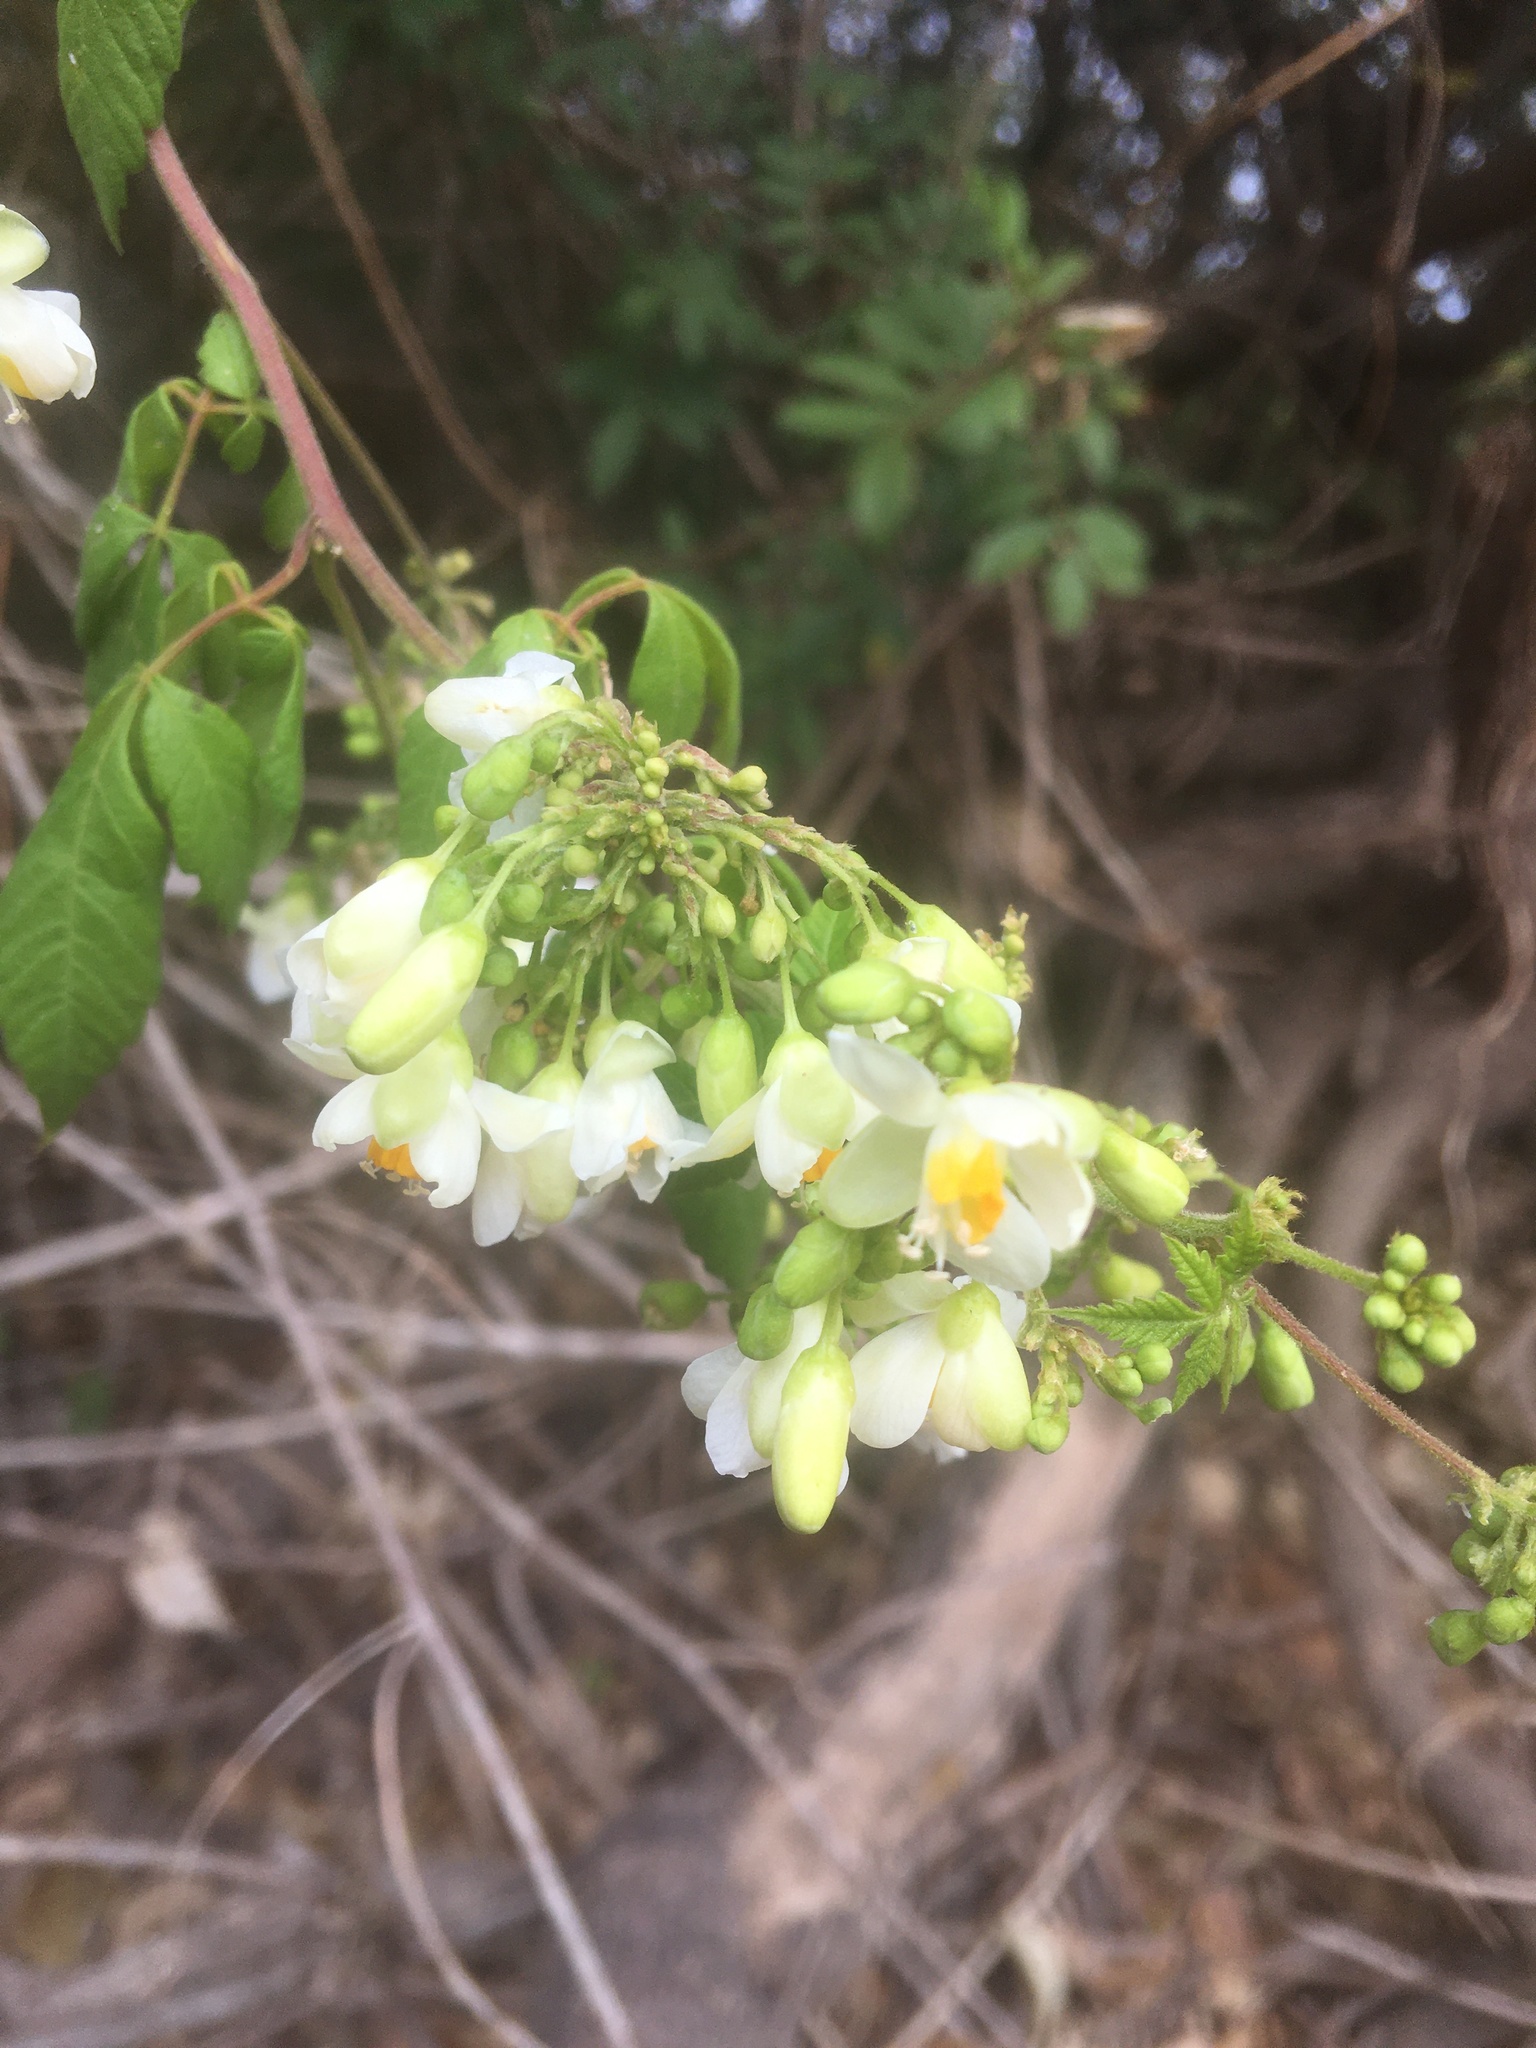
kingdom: Plantae
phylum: Tracheophyta
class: Magnoliopsida
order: Sapindales
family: Sapindaceae
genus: Cardiospermum
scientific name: Cardiospermum grandiflorum
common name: Balloon vine
